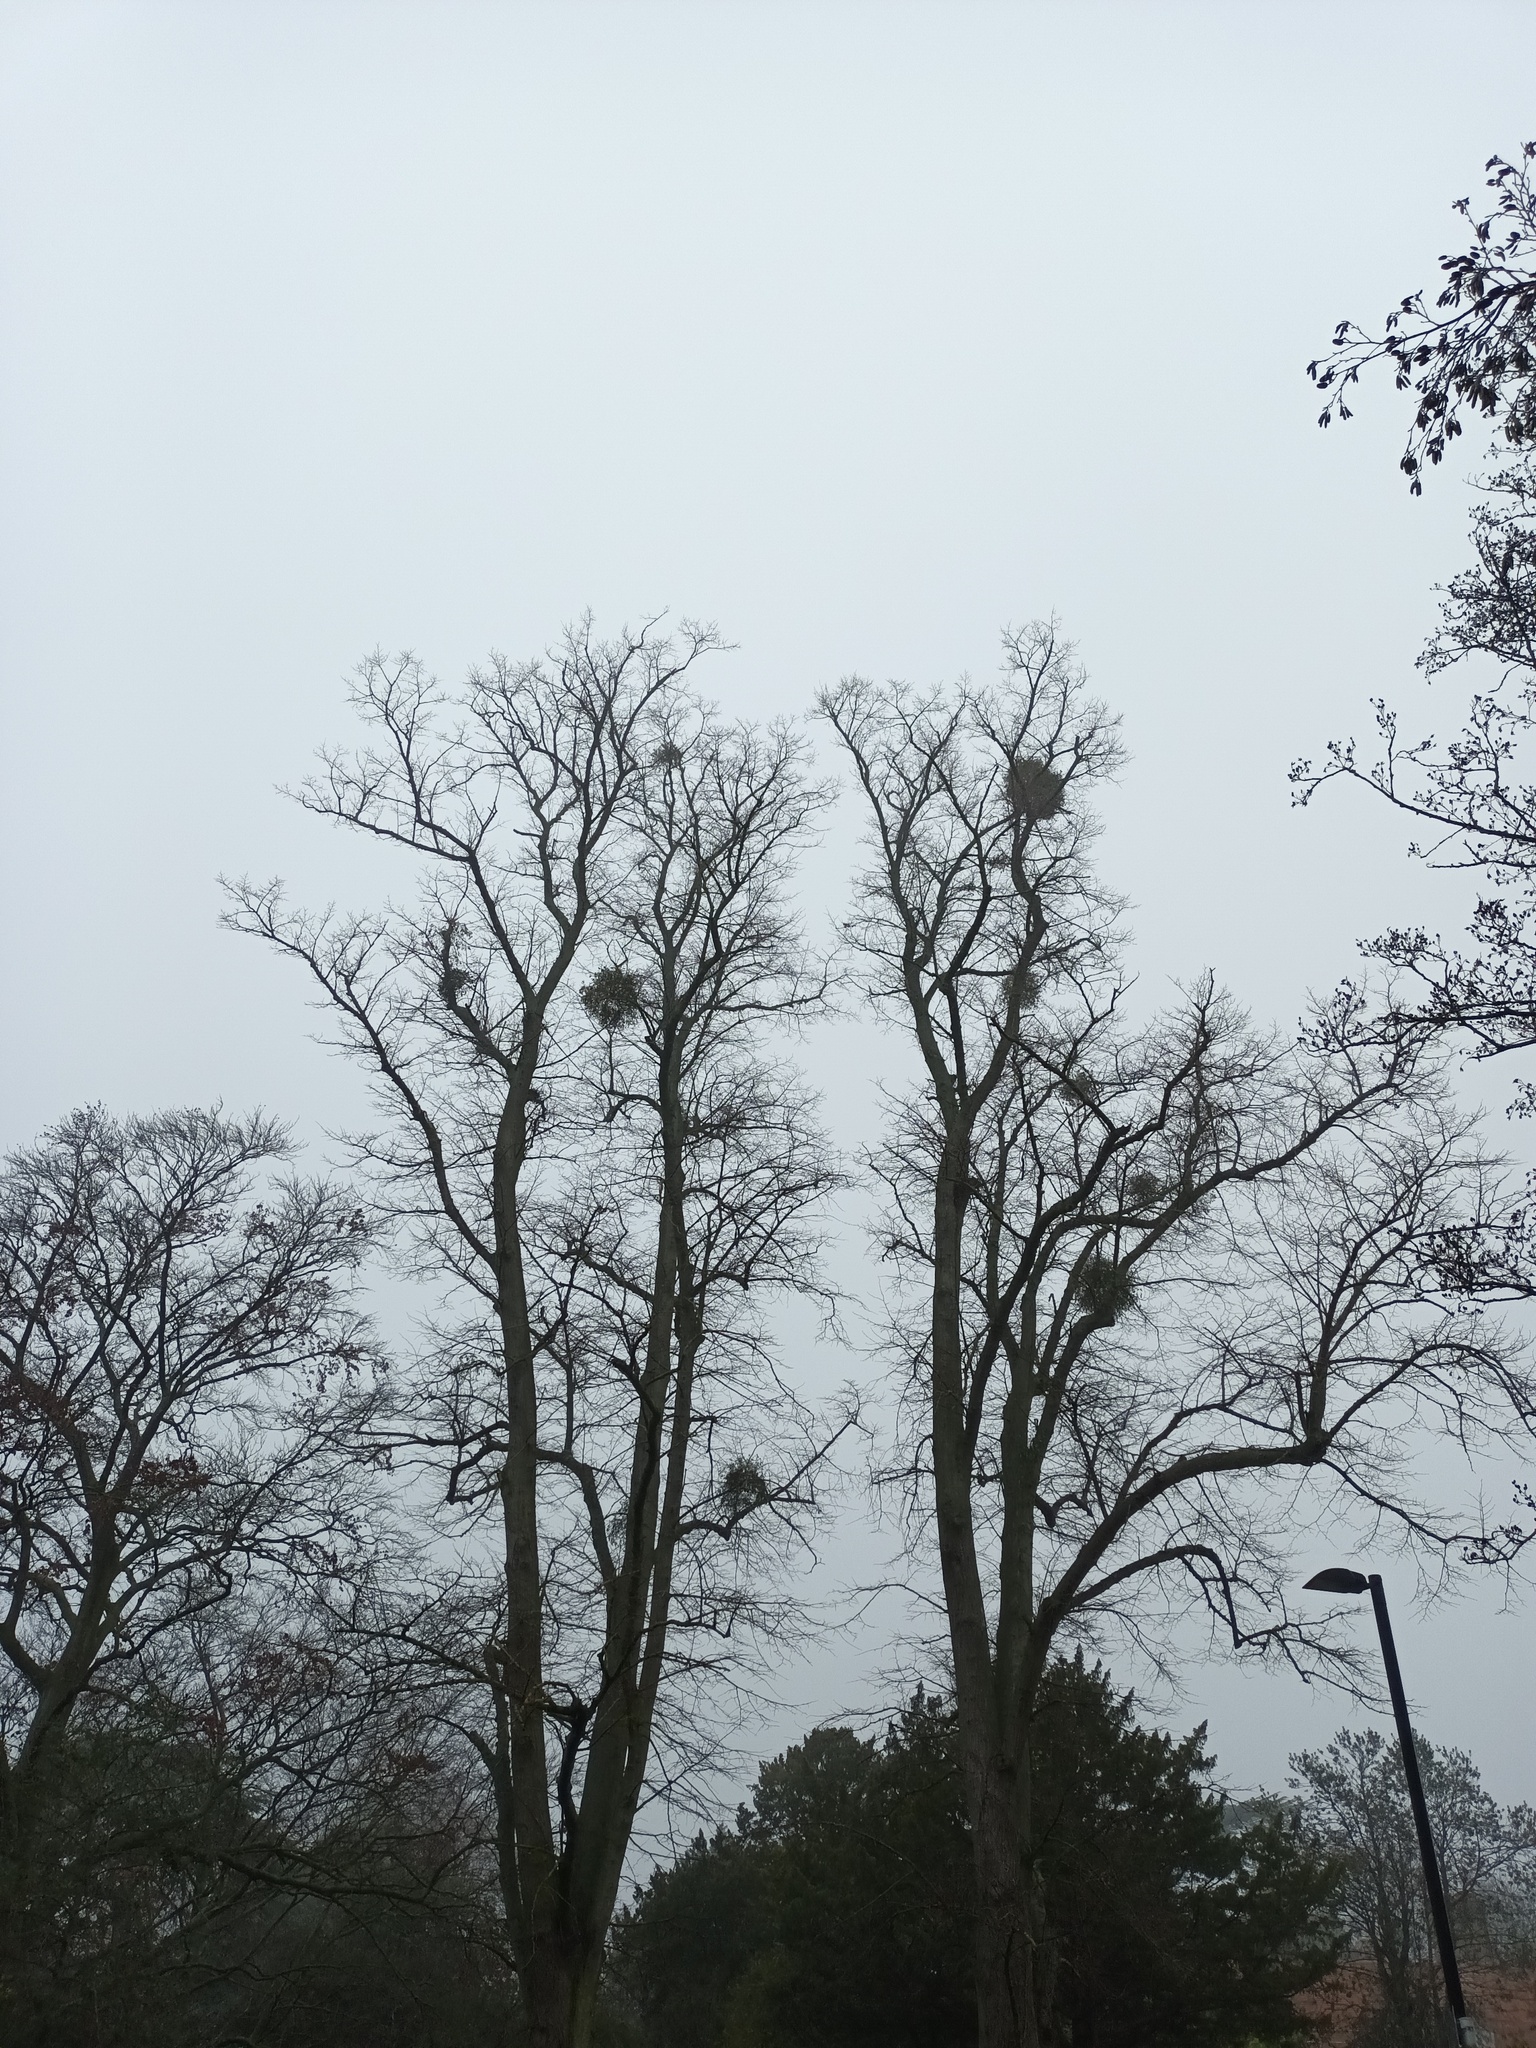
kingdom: Plantae
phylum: Tracheophyta
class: Magnoliopsida
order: Santalales
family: Viscaceae
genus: Viscum
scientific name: Viscum album
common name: Mistletoe
